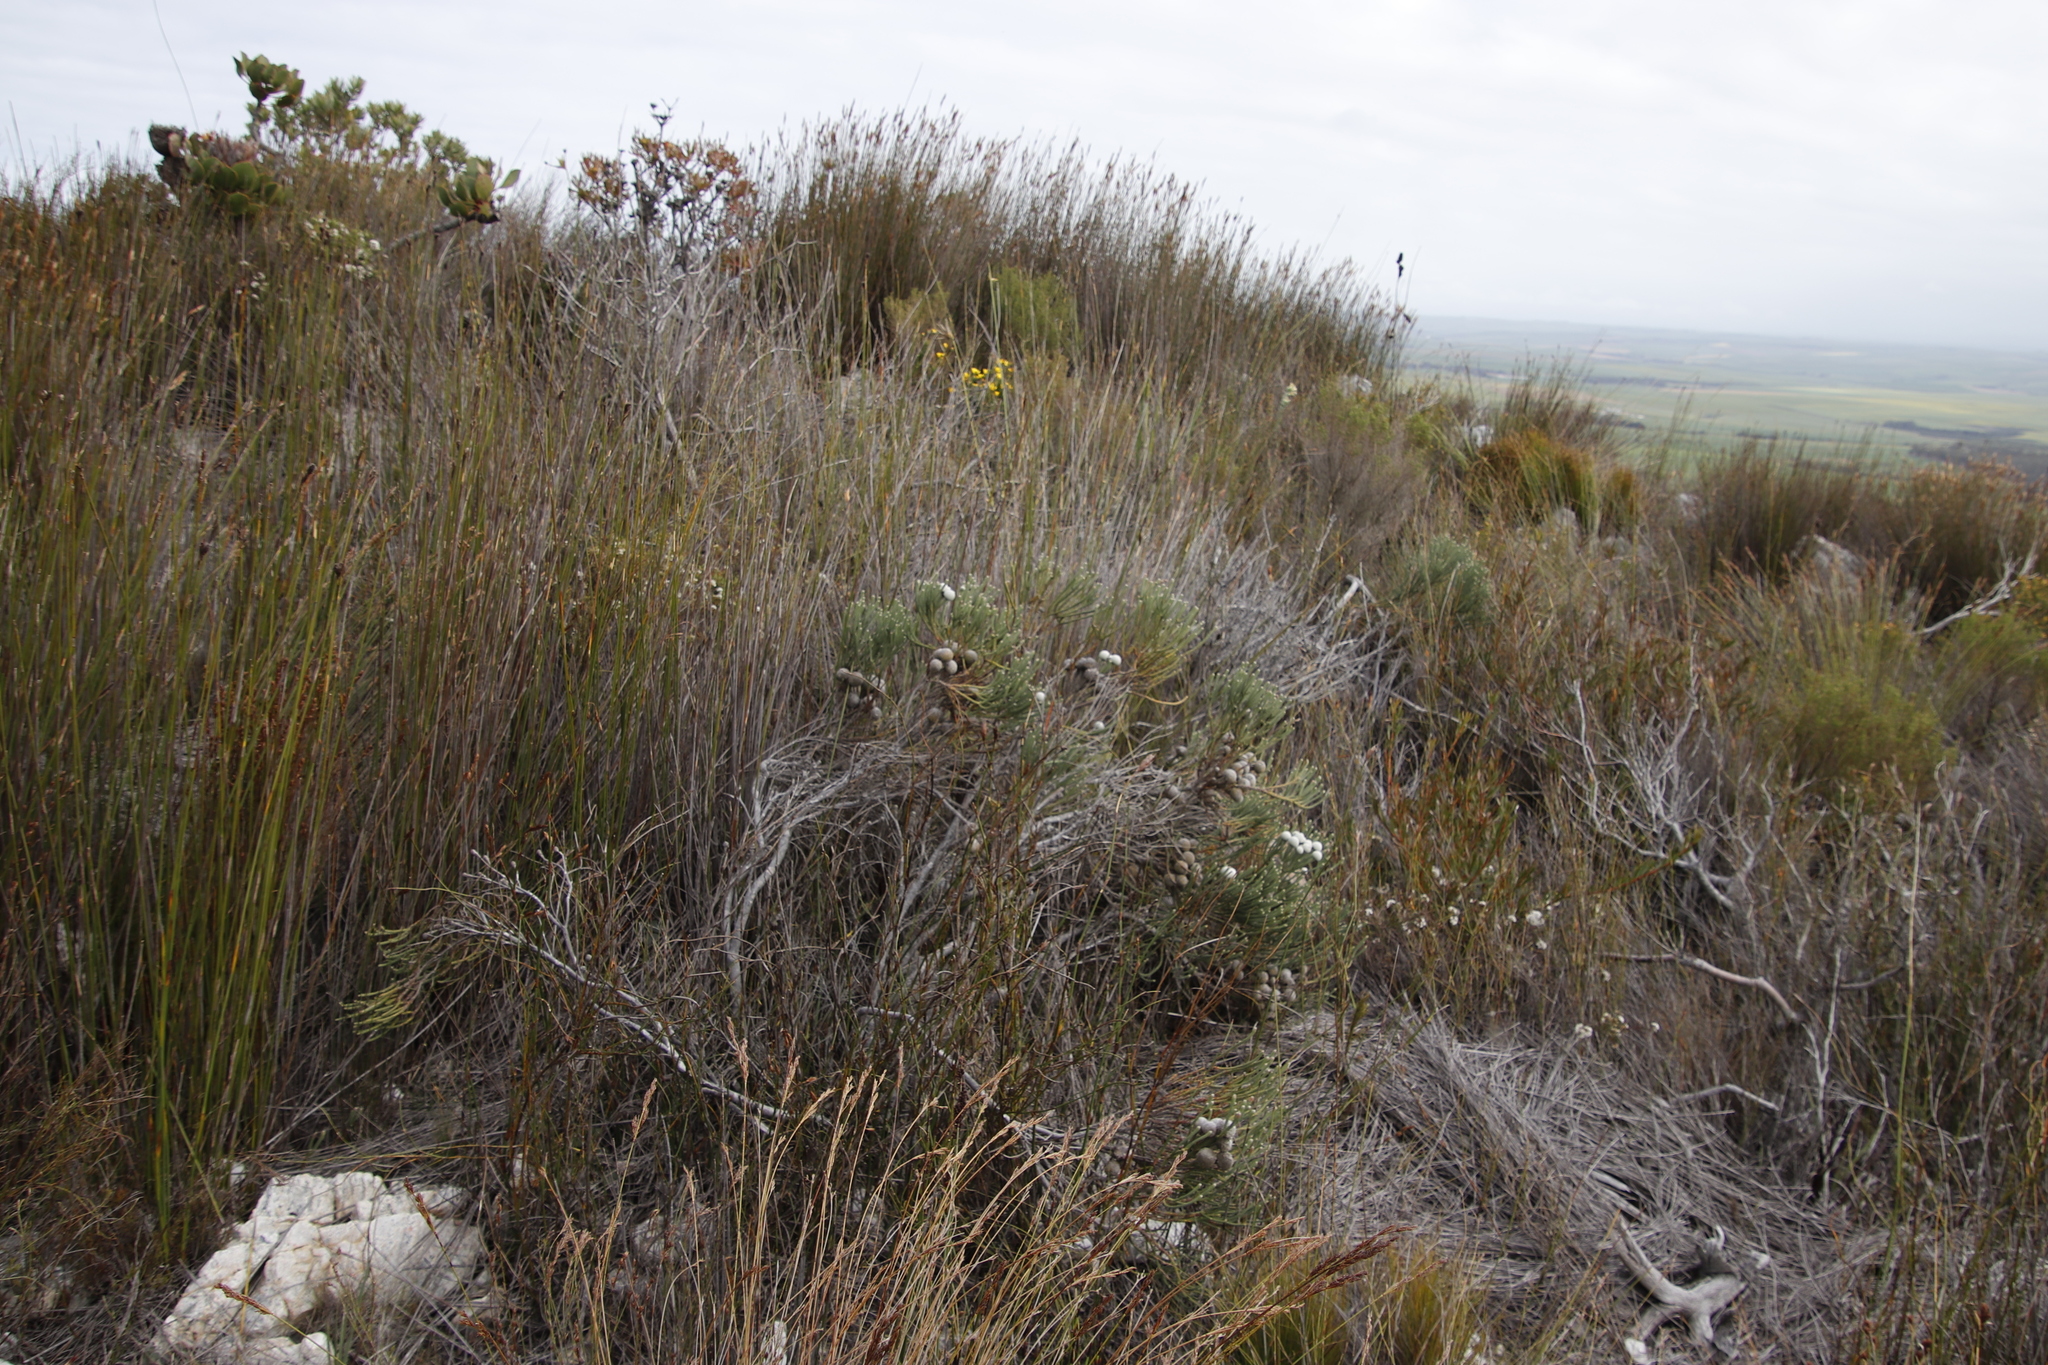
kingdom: Plantae
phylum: Tracheophyta
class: Magnoliopsida
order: Bruniales
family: Bruniaceae
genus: Brunia
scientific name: Brunia laevis
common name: Silver brunia
